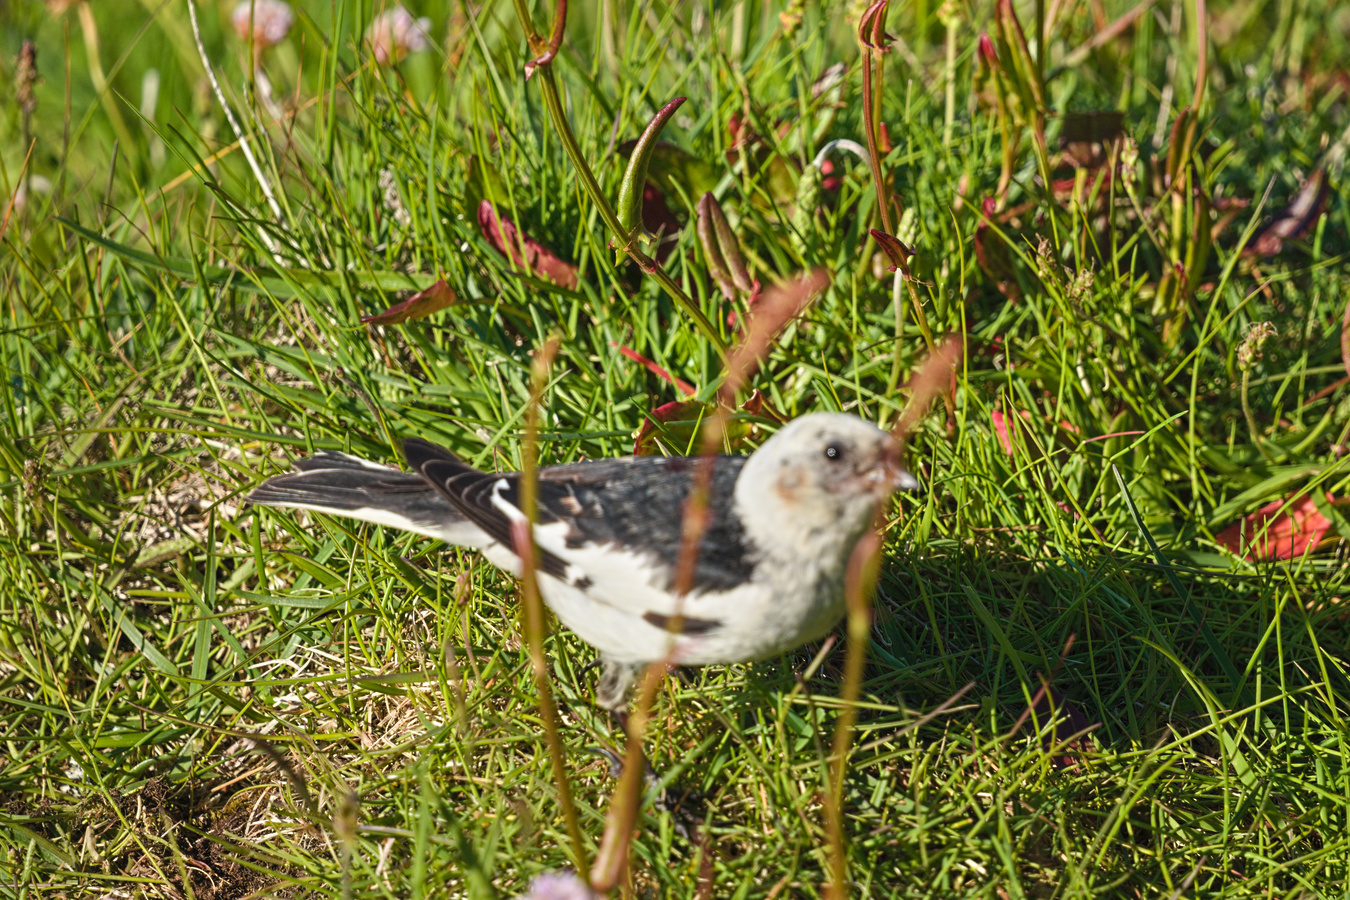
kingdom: Animalia
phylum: Chordata
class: Aves
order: Passeriformes
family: Calcariidae
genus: Plectrophenax
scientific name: Plectrophenax nivalis
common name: Snow bunting
